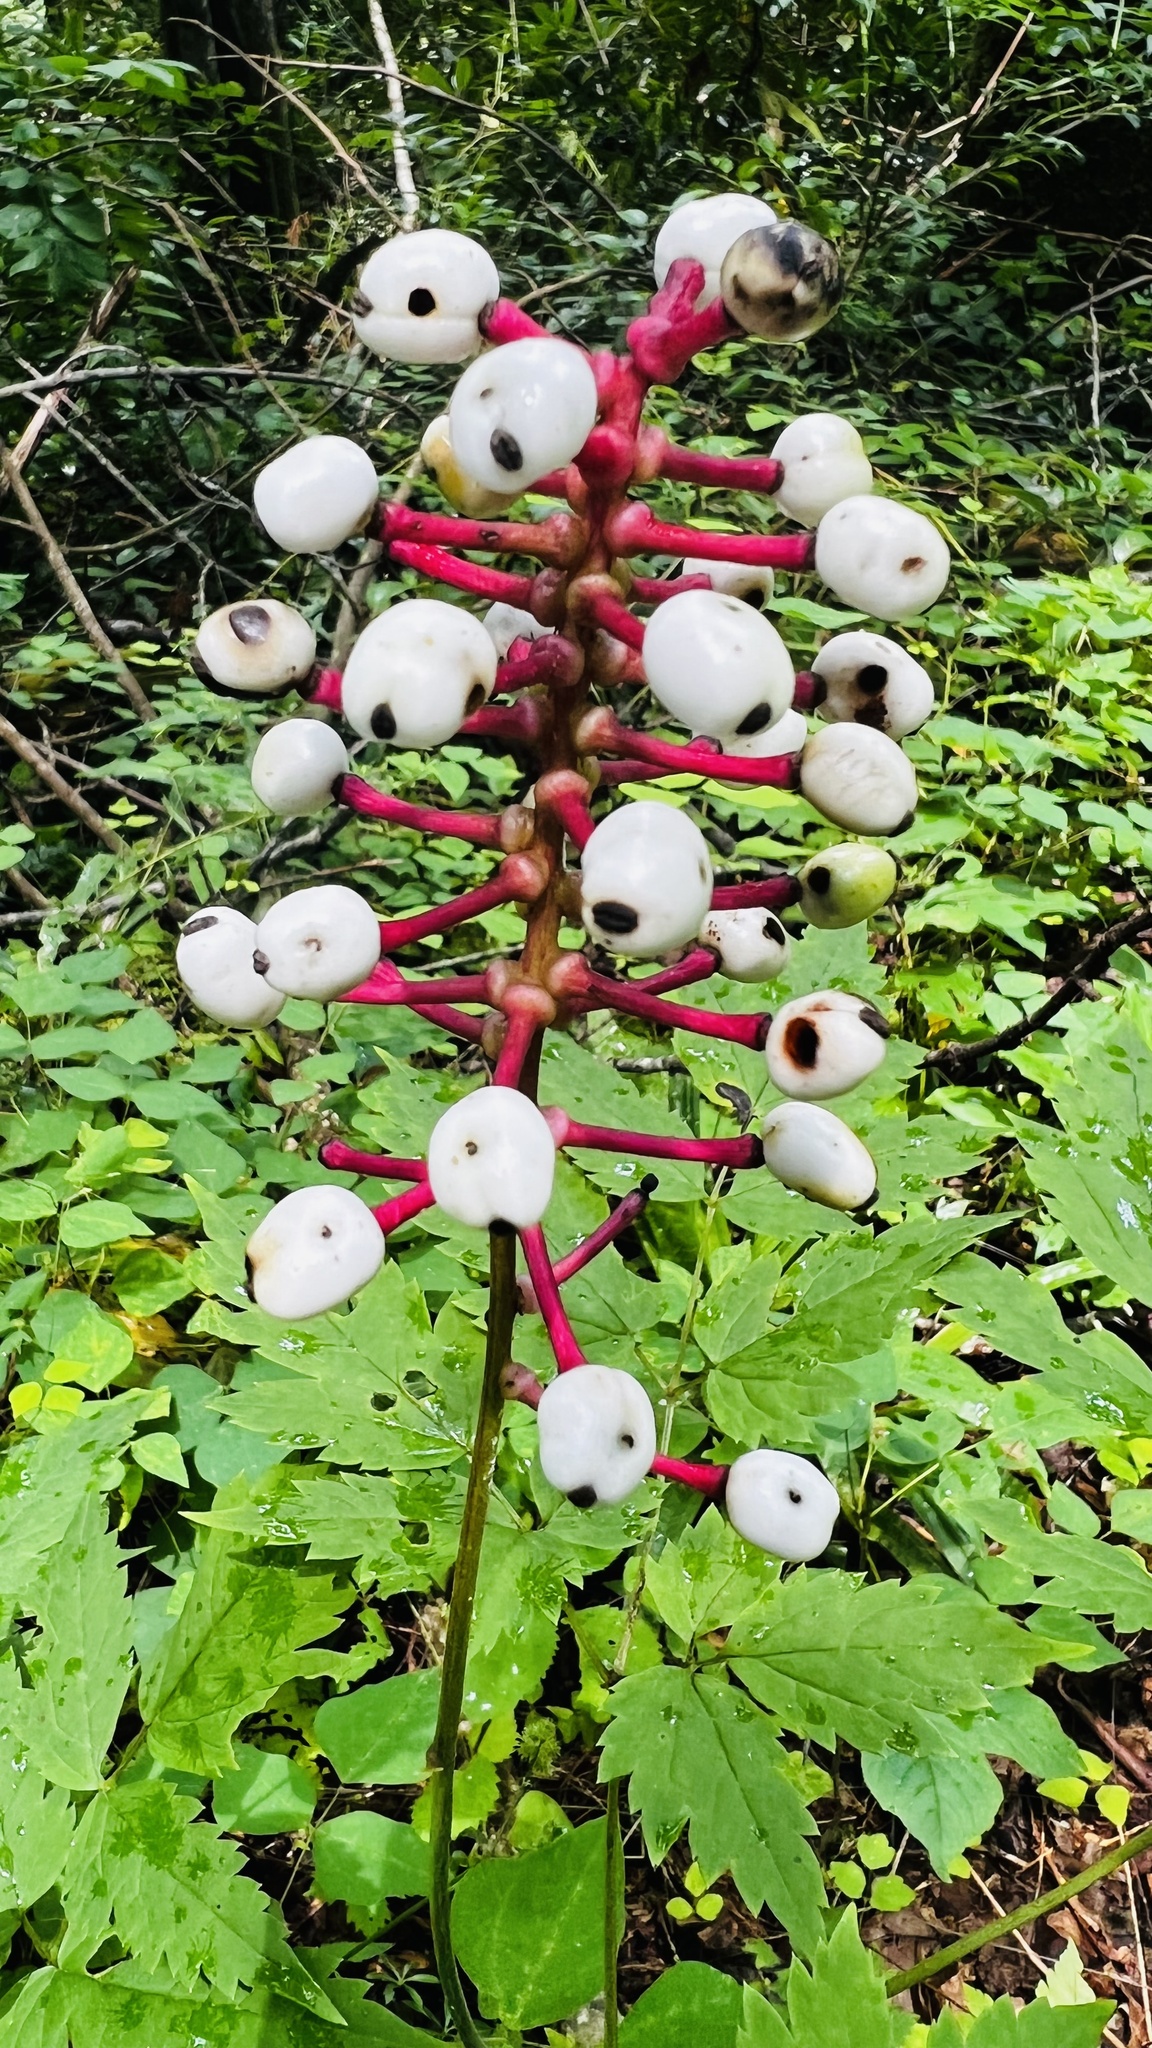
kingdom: Plantae
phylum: Tracheophyta
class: Magnoliopsida
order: Ranunculales
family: Ranunculaceae
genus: Actaea
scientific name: Actaea pachypoda
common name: Doll's-eyes
